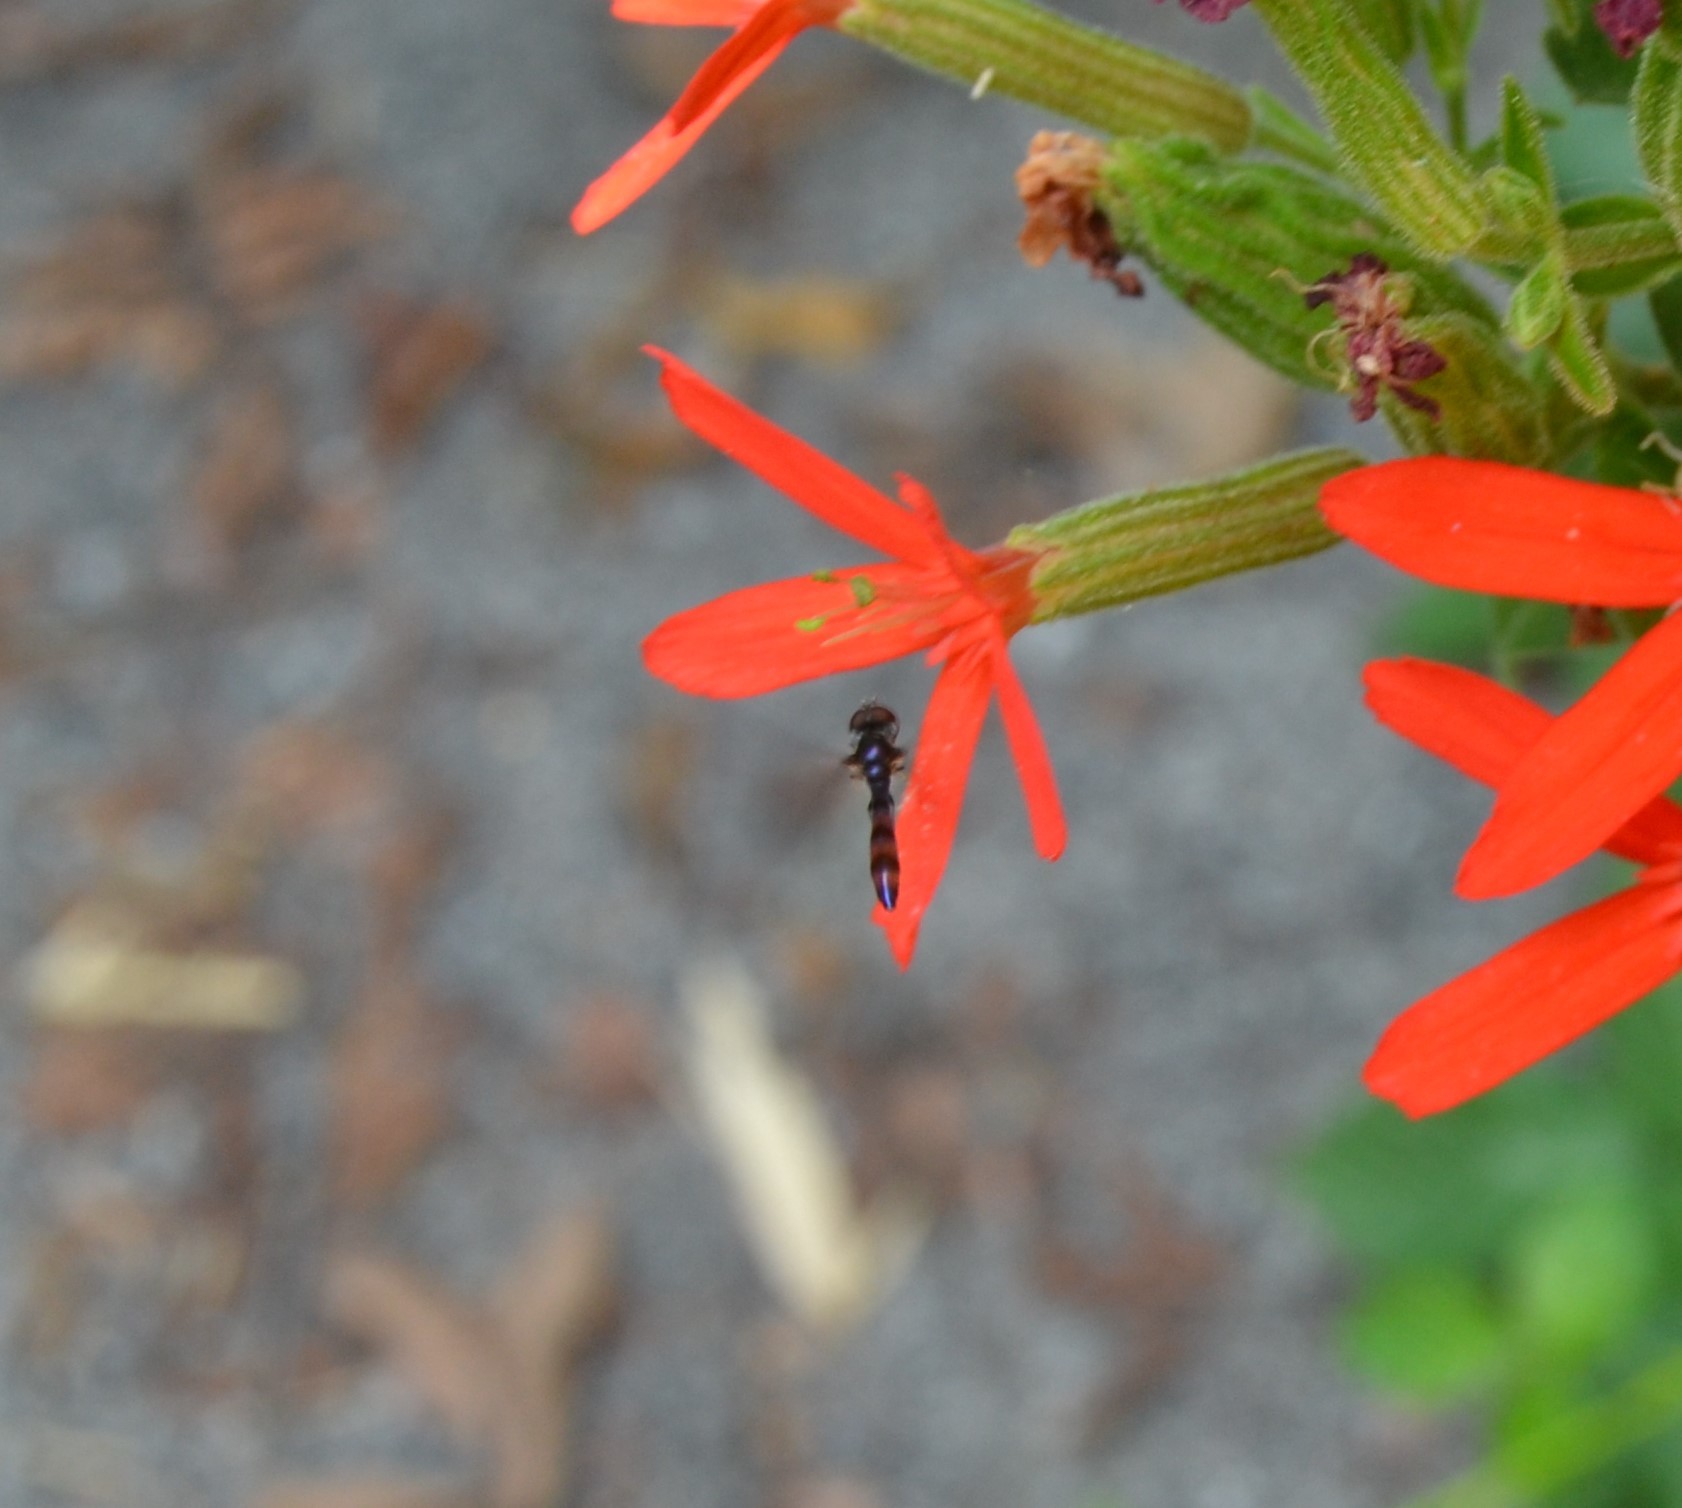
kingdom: Animalia
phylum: Arthropoda
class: Insecta
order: Diptera
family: Syrphidae
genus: Ocyptamus
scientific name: Ocyptamus fuscipennis
